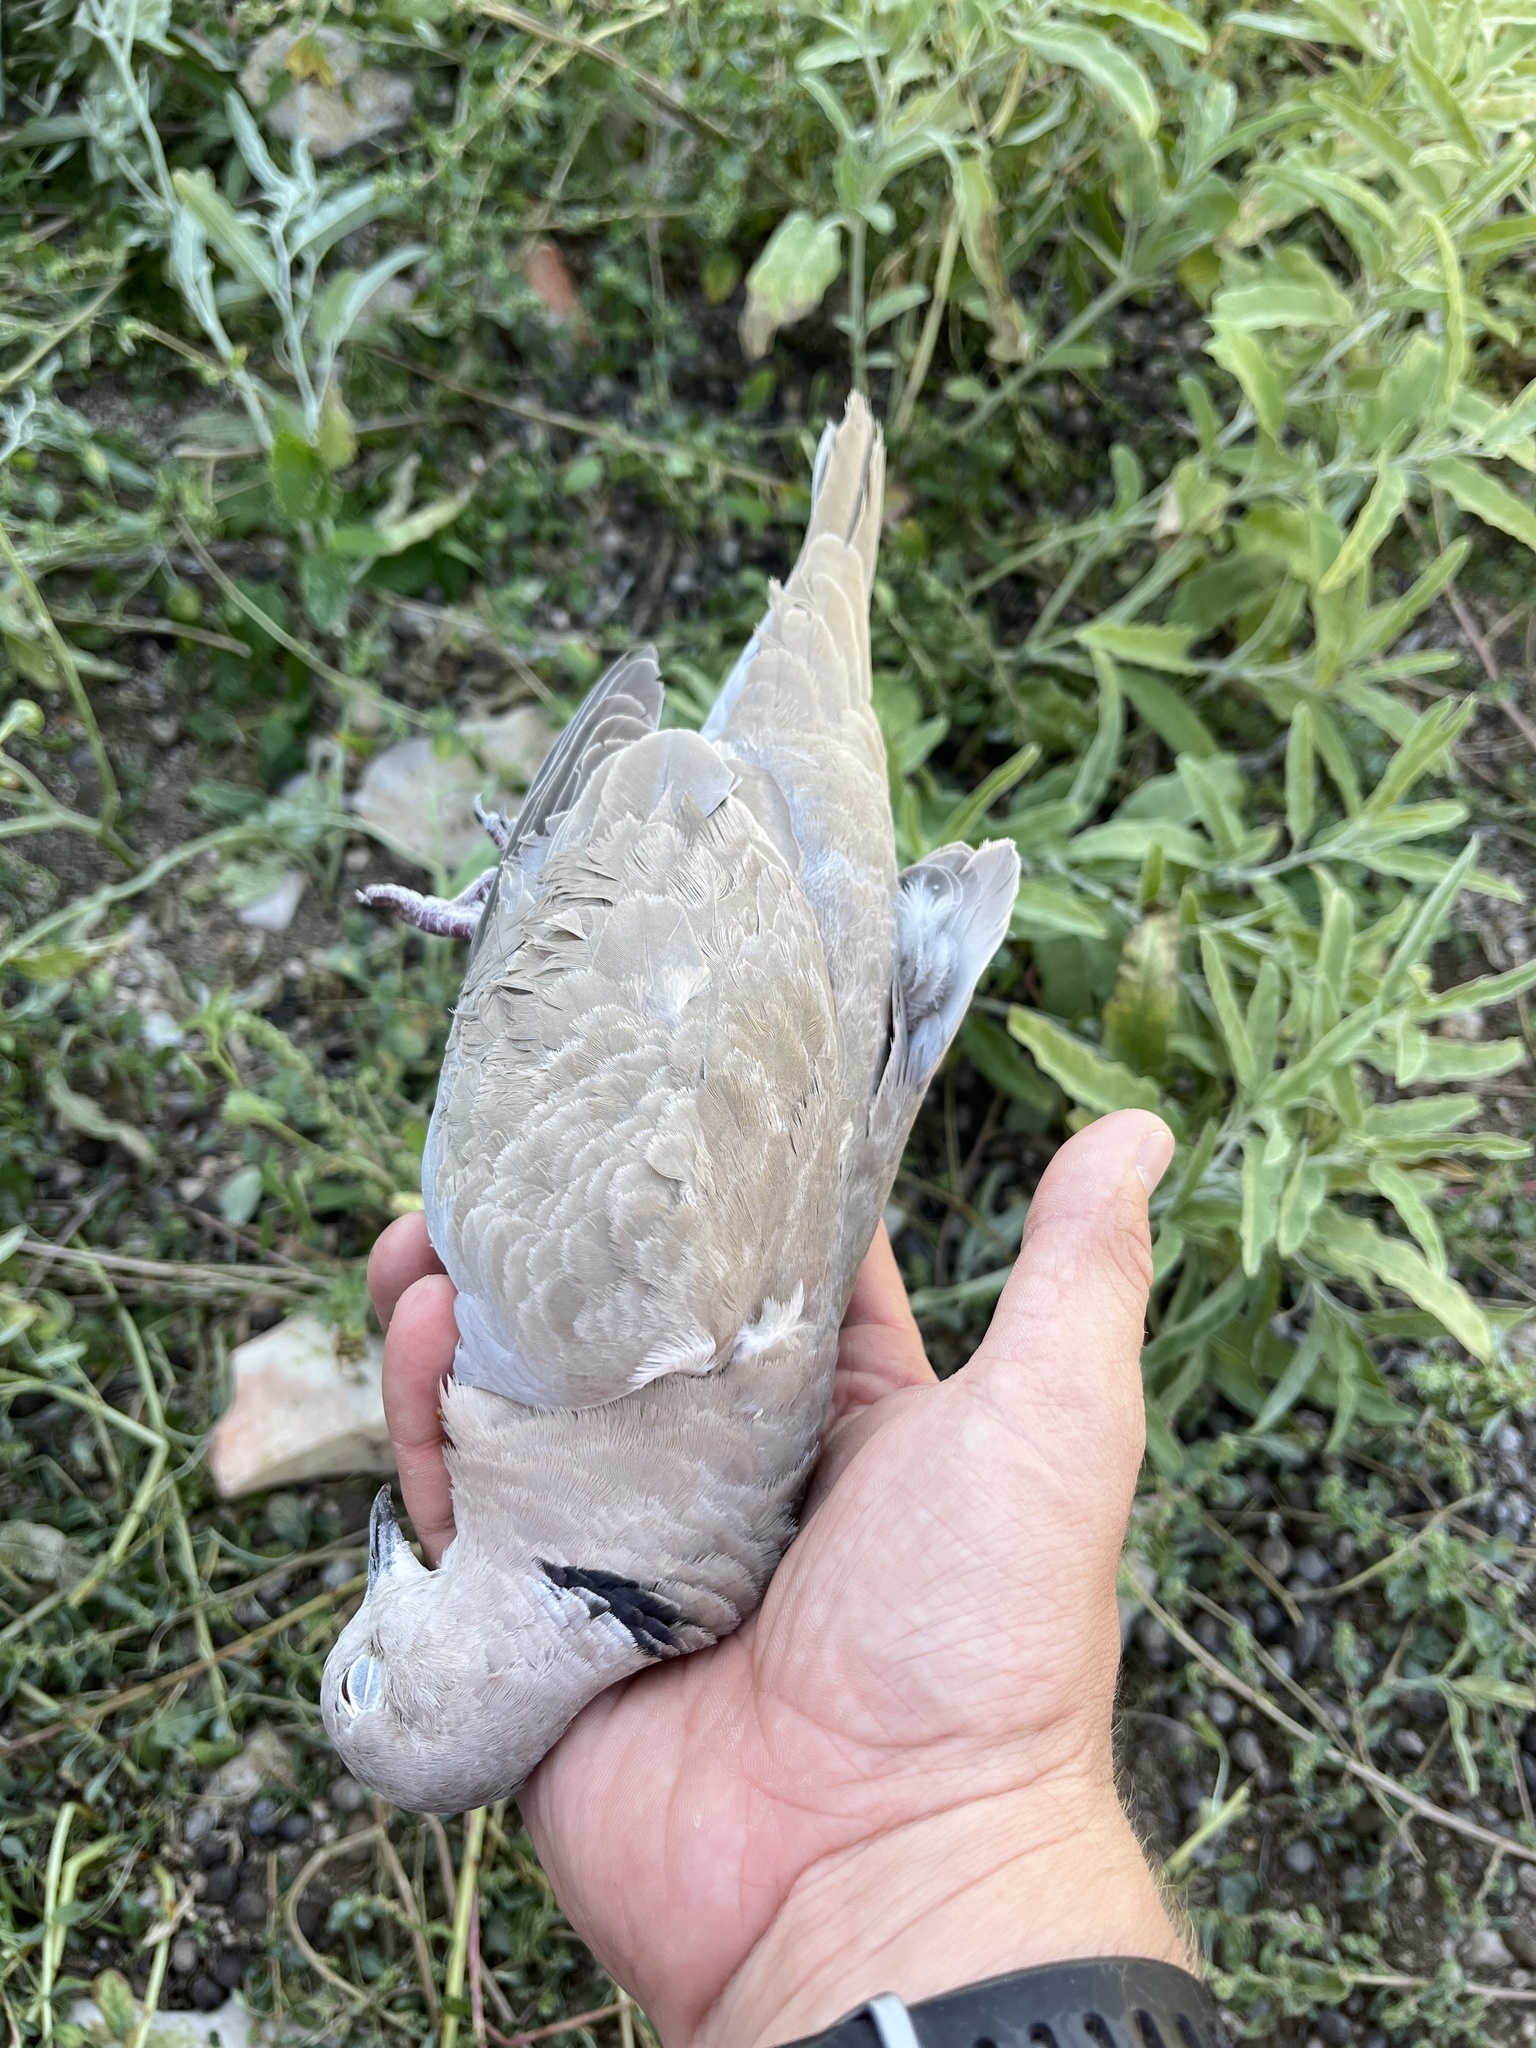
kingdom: Animalia
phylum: Chordata
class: Aves
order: Columbiformes
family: Columbidae
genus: Streptopelia
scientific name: Streptopelia decaocto
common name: Eurasian collared dove
